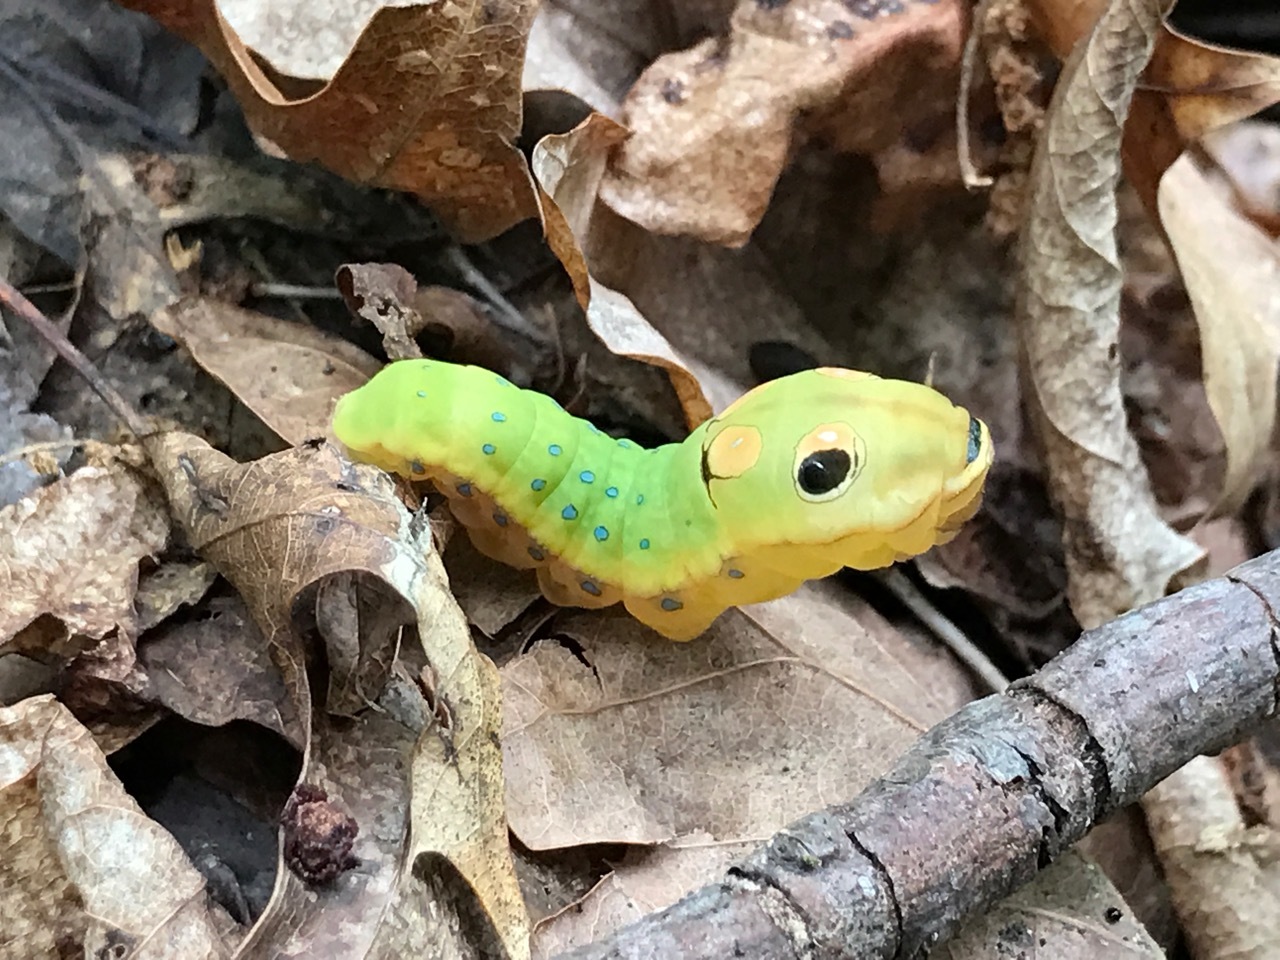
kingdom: Animalia
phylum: Arthropoda
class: Insecta
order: Lepidoptera
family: Papilionidae
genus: Papilio
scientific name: Papilio troilus
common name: Spicebush swallowtail
